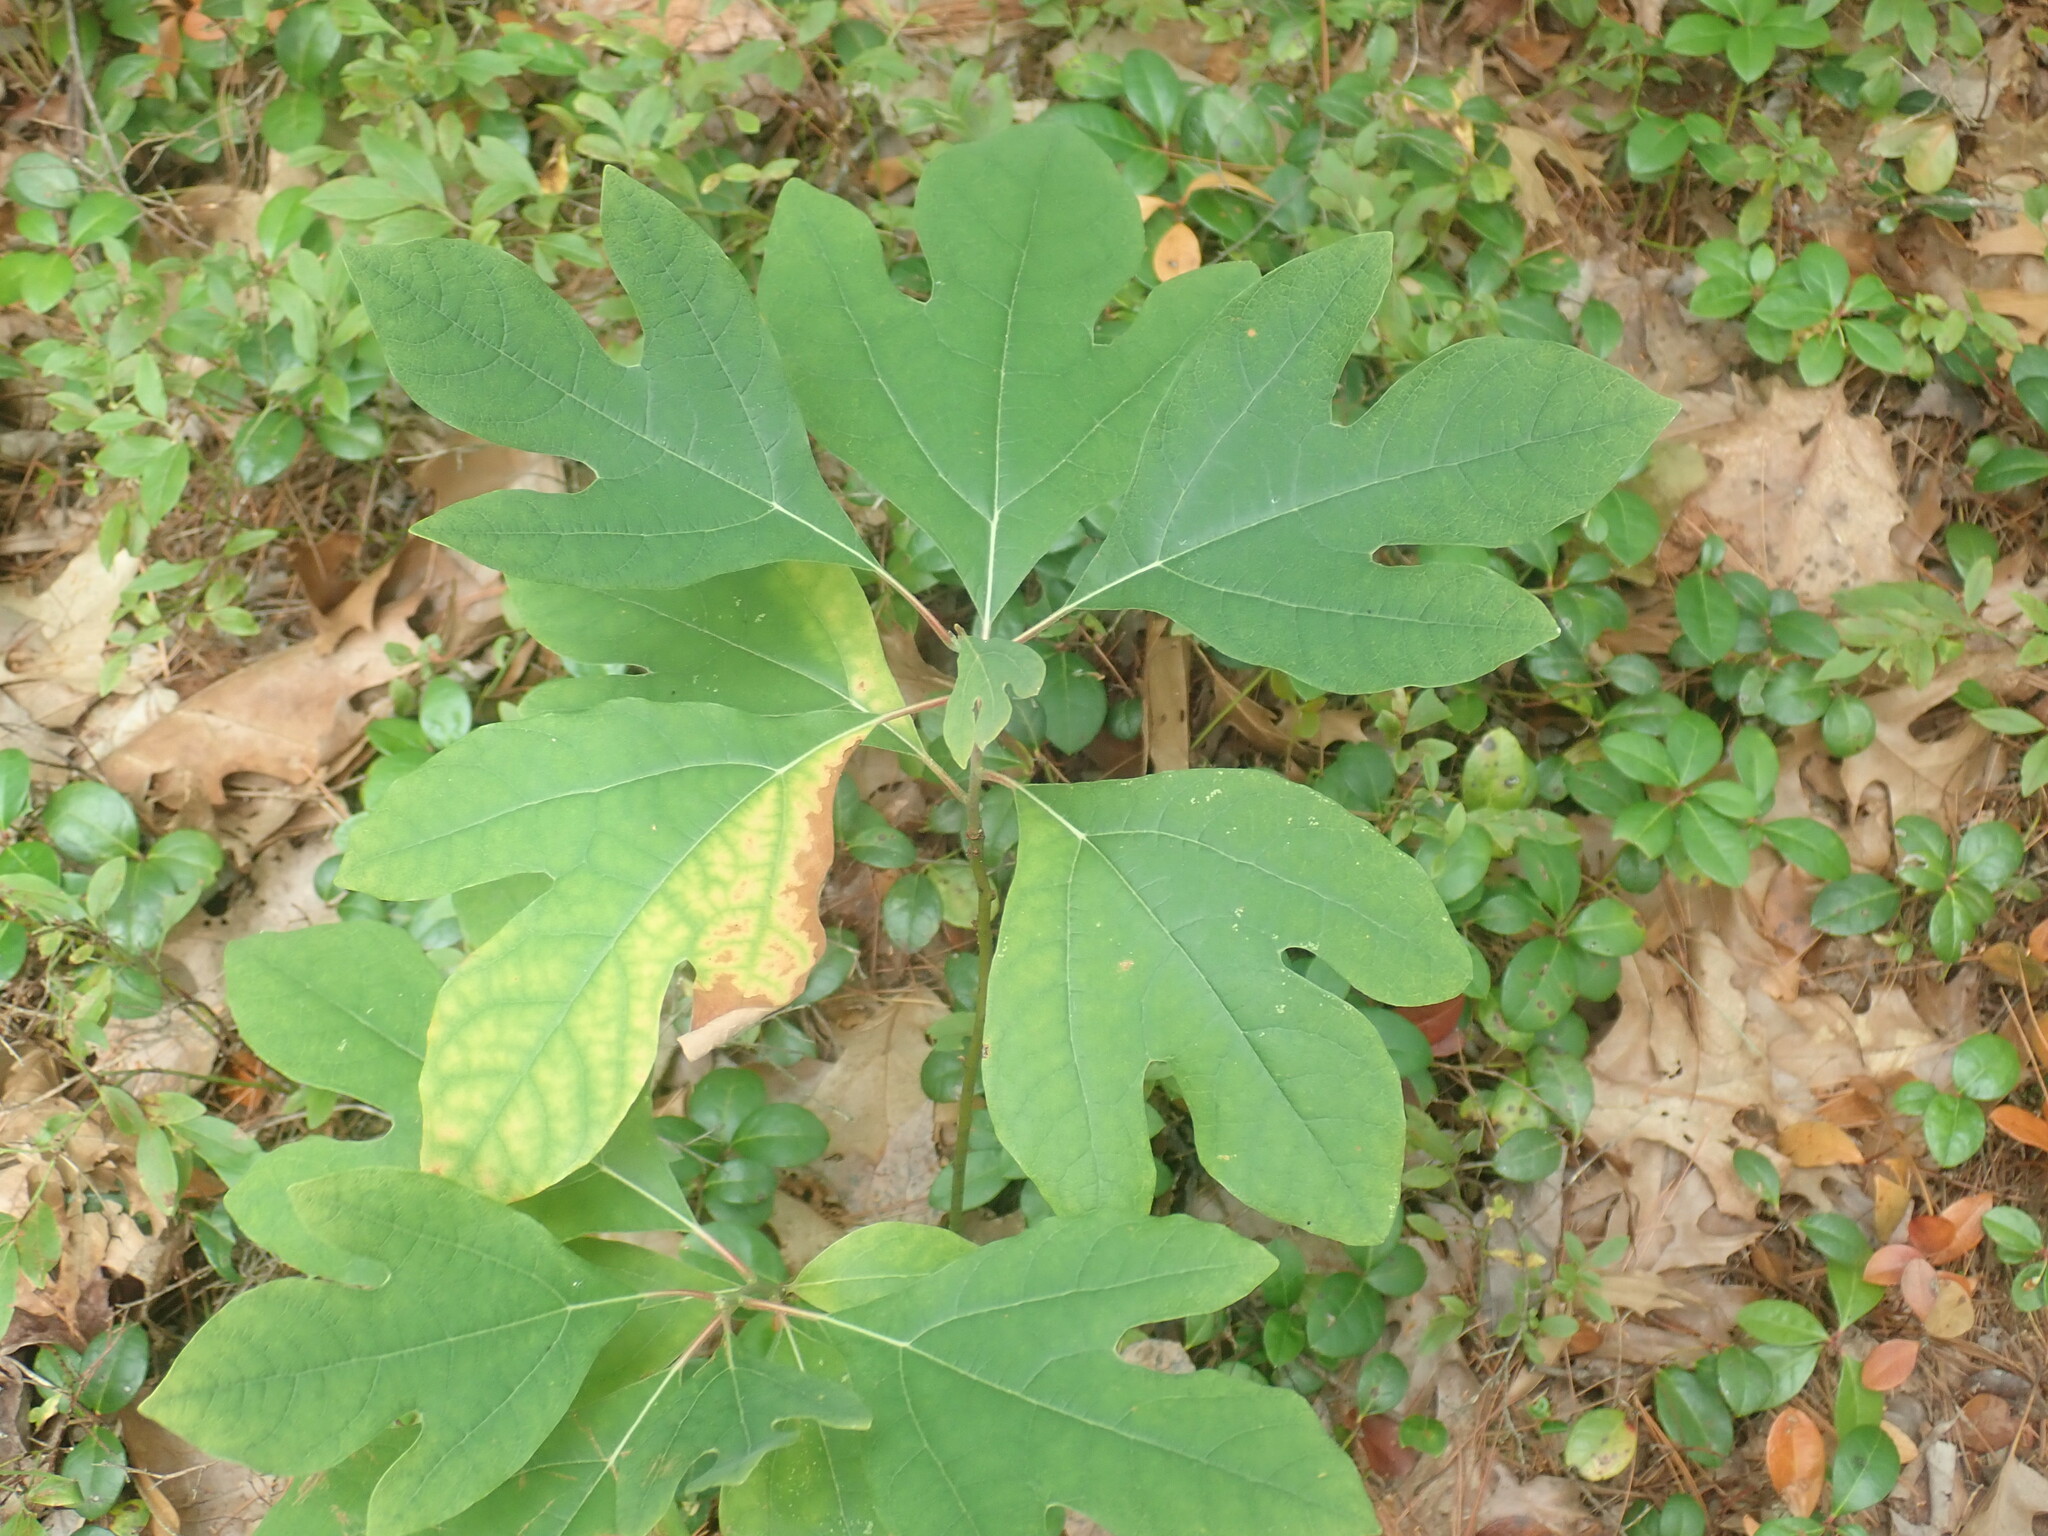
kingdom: Plantae
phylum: Tracheophyta
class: Magnoliopsida
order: Laurales
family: Lauraceae
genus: Sassafras
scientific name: Sassafras albidum
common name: Sassafras
